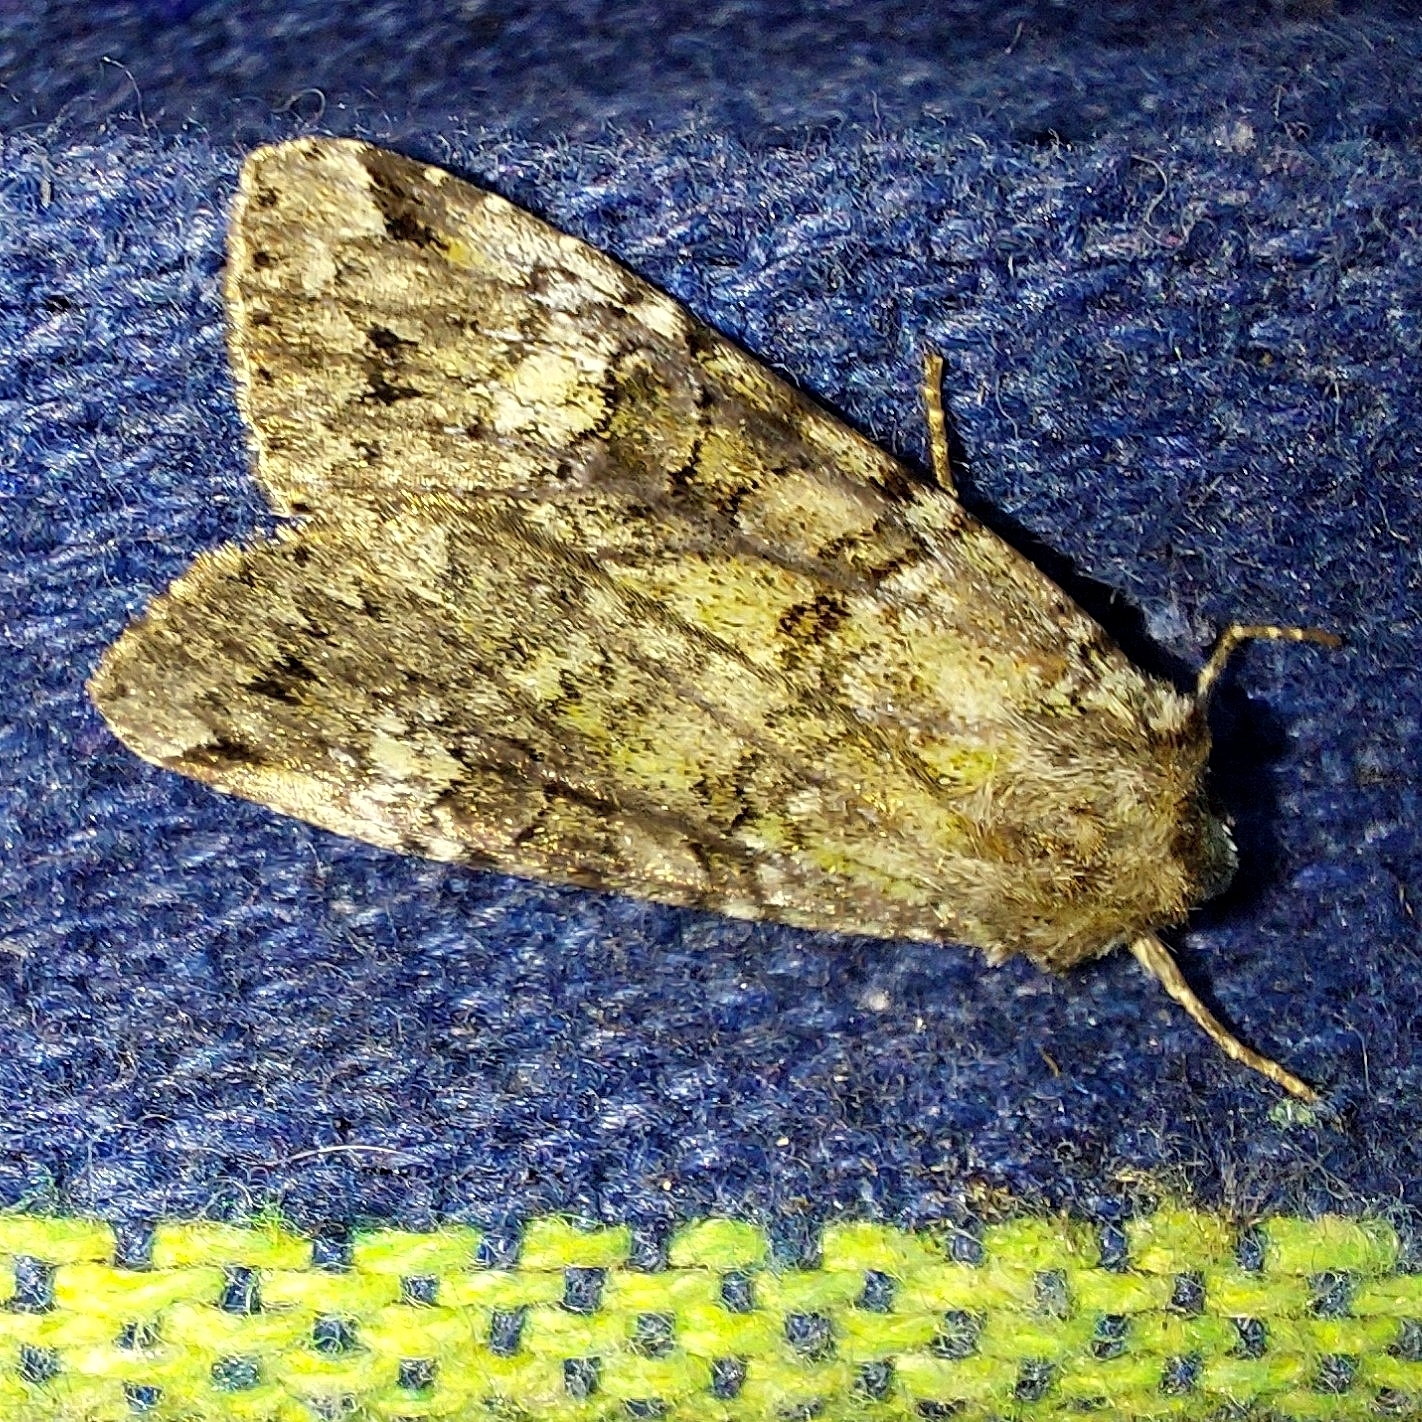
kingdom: Animalia
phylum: Arthropoda
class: Insecta
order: Lepidoptera
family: Noctuidae
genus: Anaplectoides
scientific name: Anaplectoides prasina
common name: Green arches
